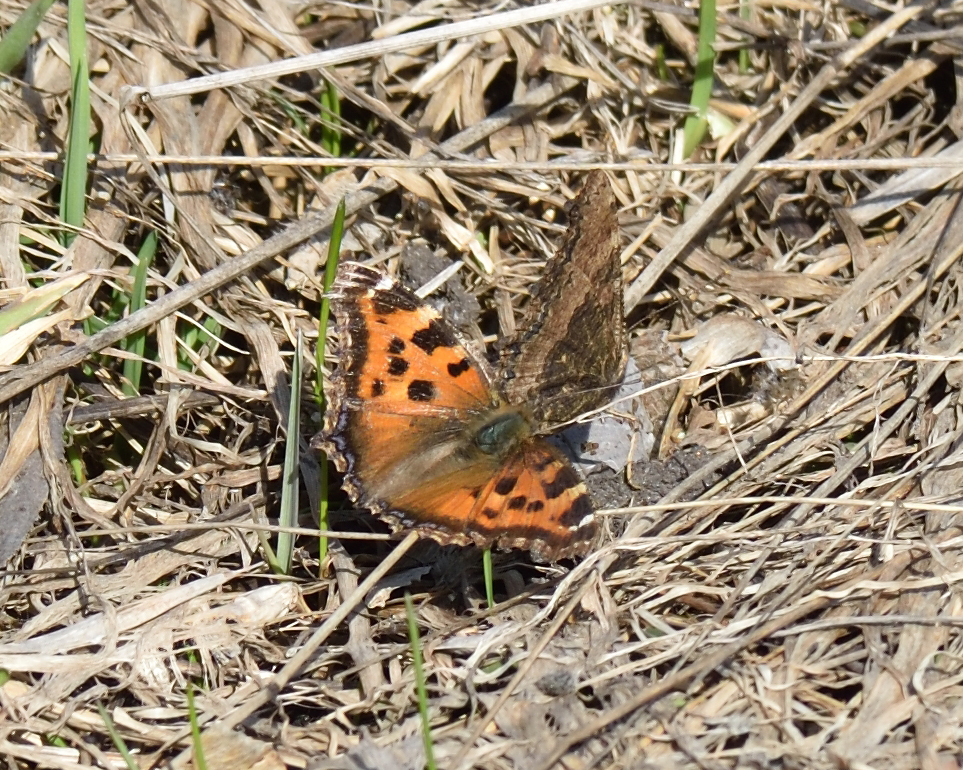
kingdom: Animalia
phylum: Arthropoda
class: Insecta
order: Lepidoptera
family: Nymphalidae
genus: Nymphalis
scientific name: Nymphalis xanthomelas
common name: Scarce tortoiseshell
